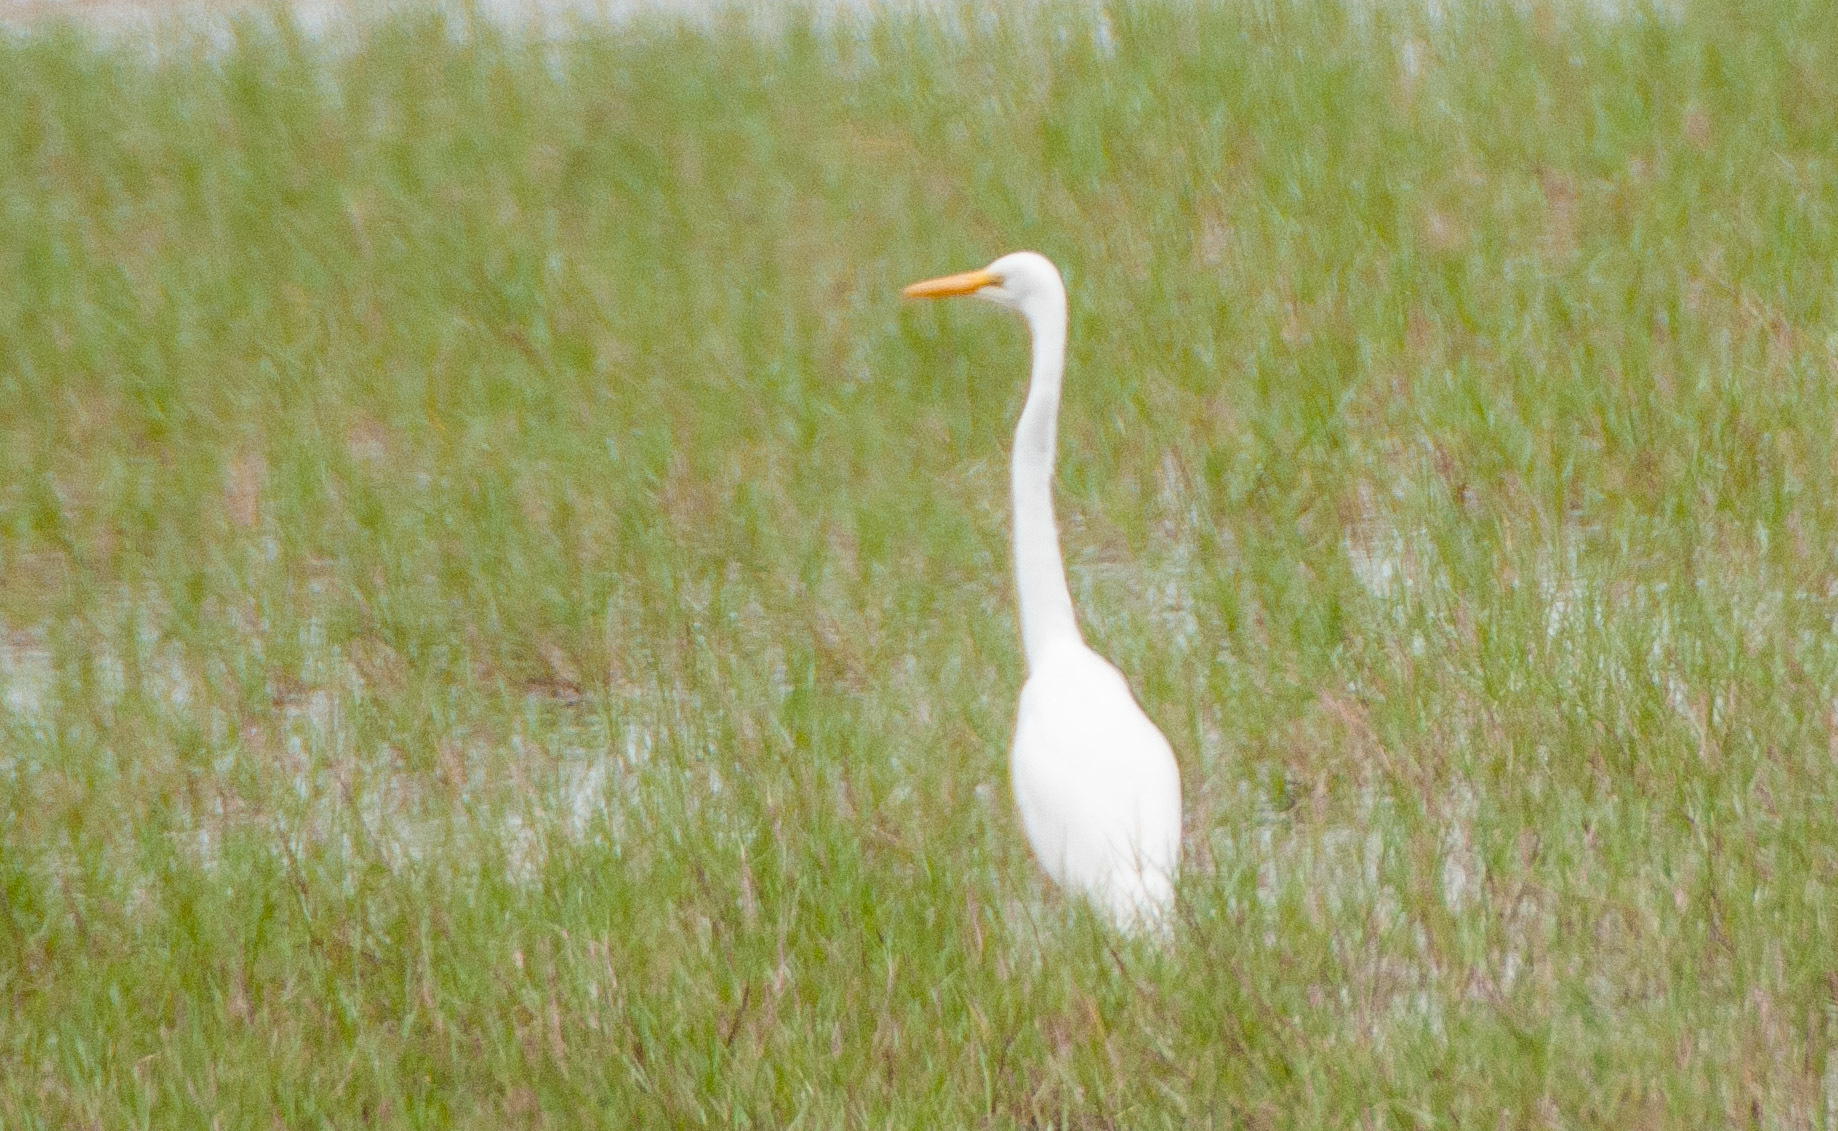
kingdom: Animalia
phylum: Chordata
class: Aves
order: Pelecaniformes
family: Ardeidae
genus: Ardea
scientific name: Ardea alba
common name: Great egret
